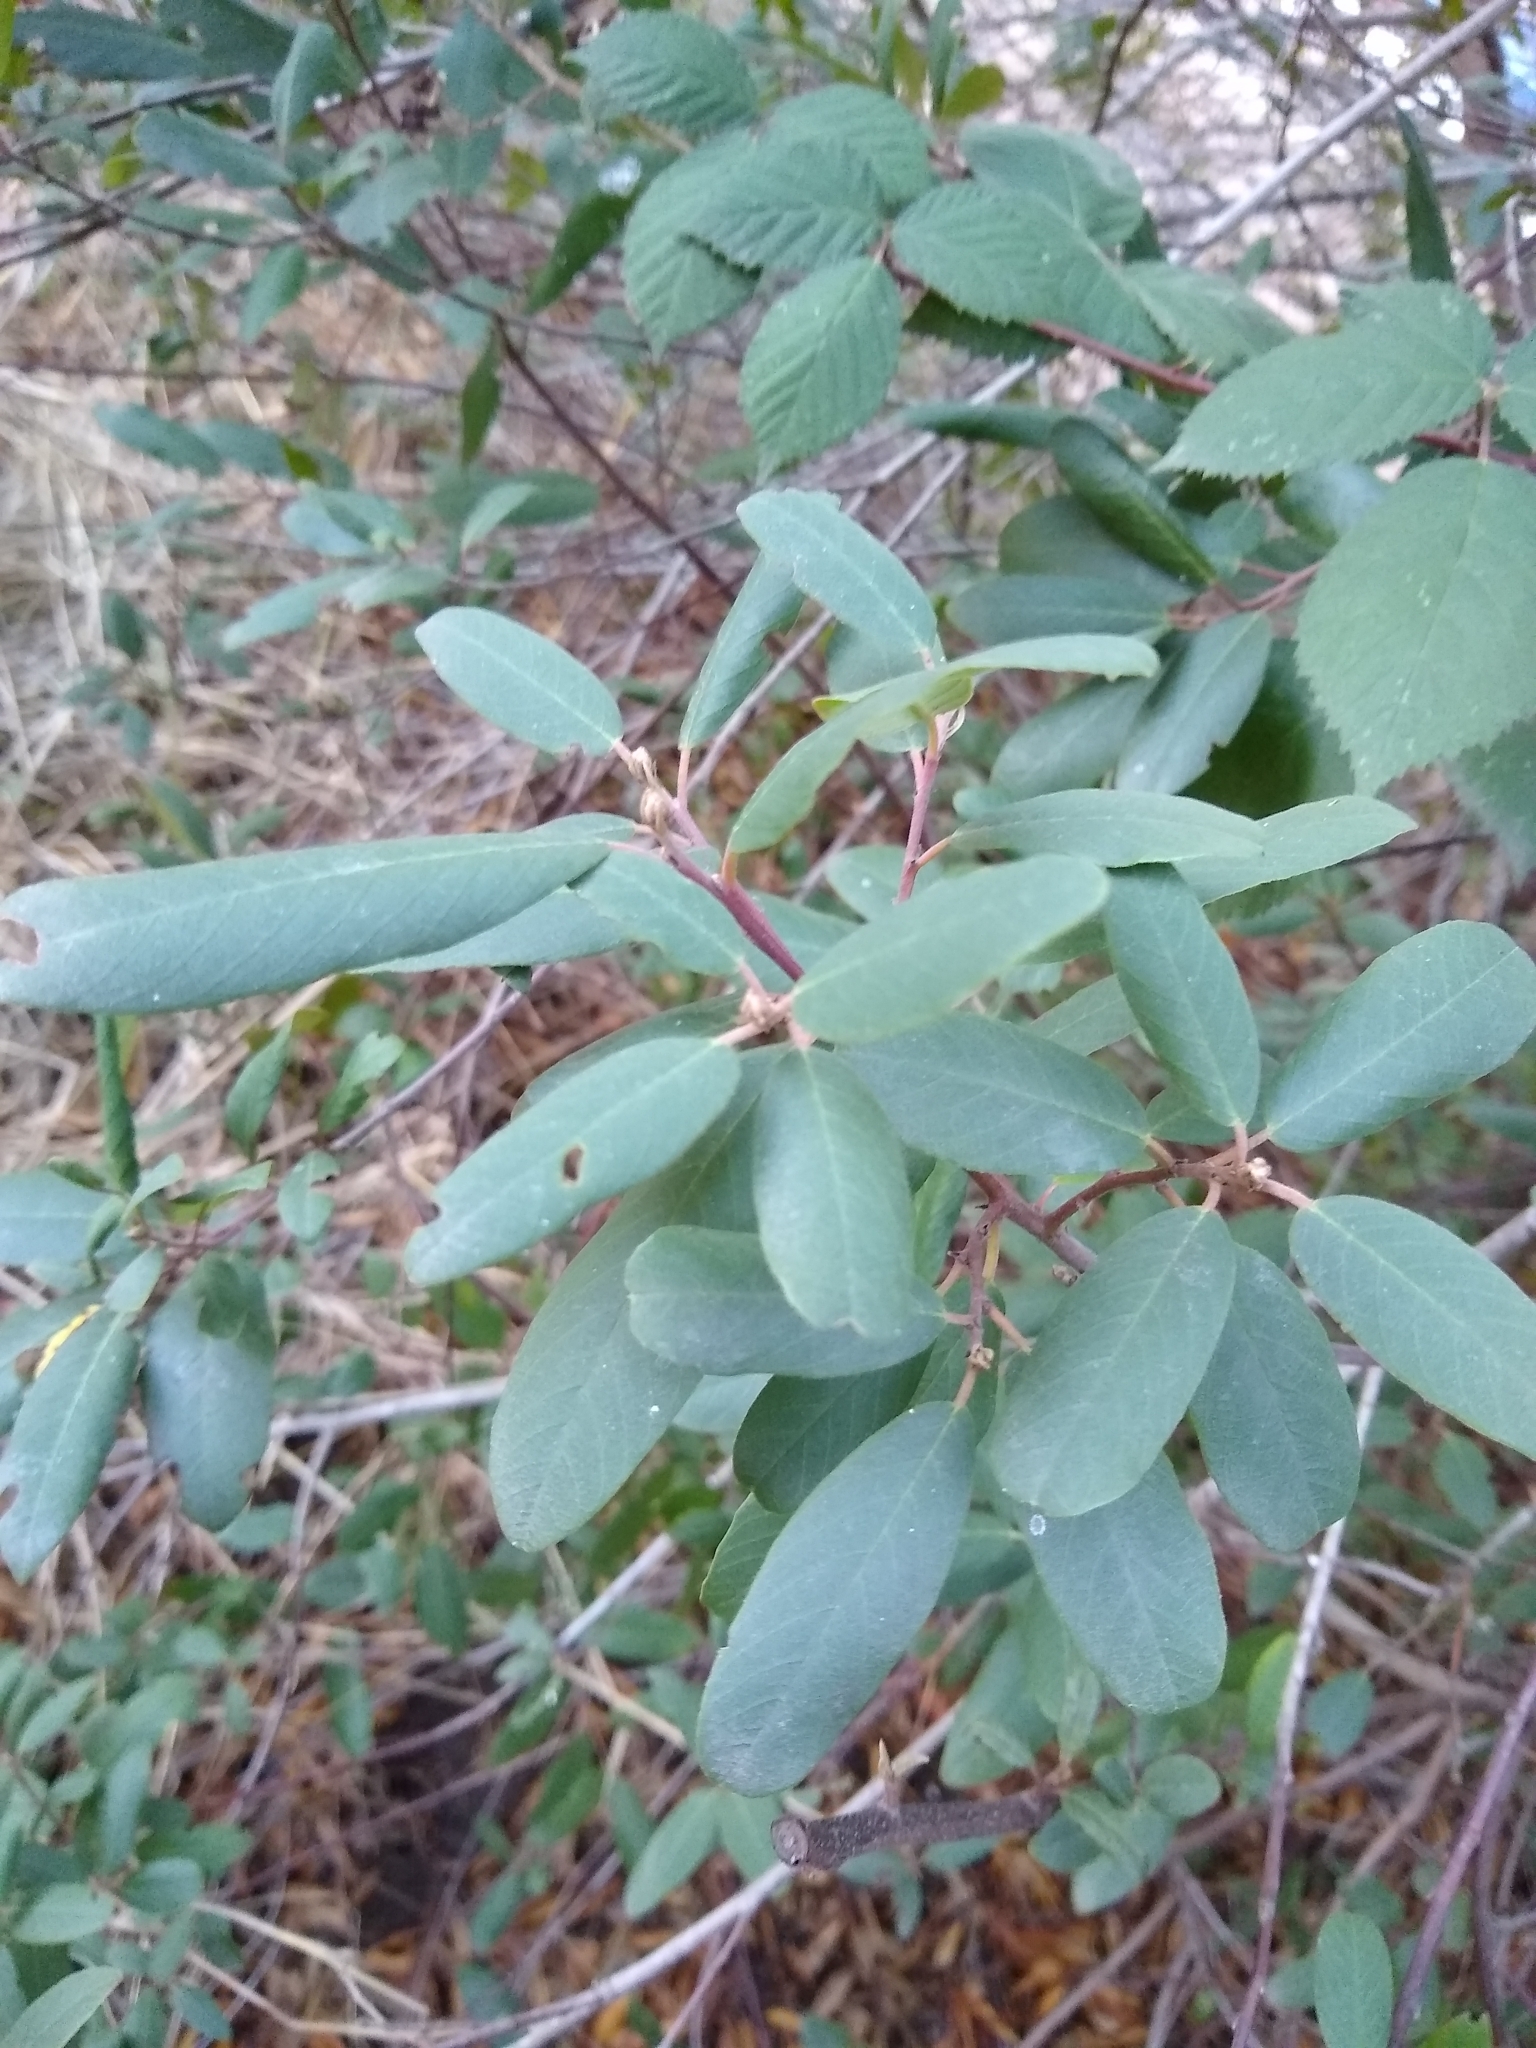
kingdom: Plantae
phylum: Tracheophyta
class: Magnoliopsida
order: Rosales
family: Rhamnaceae
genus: Frangula
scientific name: Frangula californica
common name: California buckthorn
